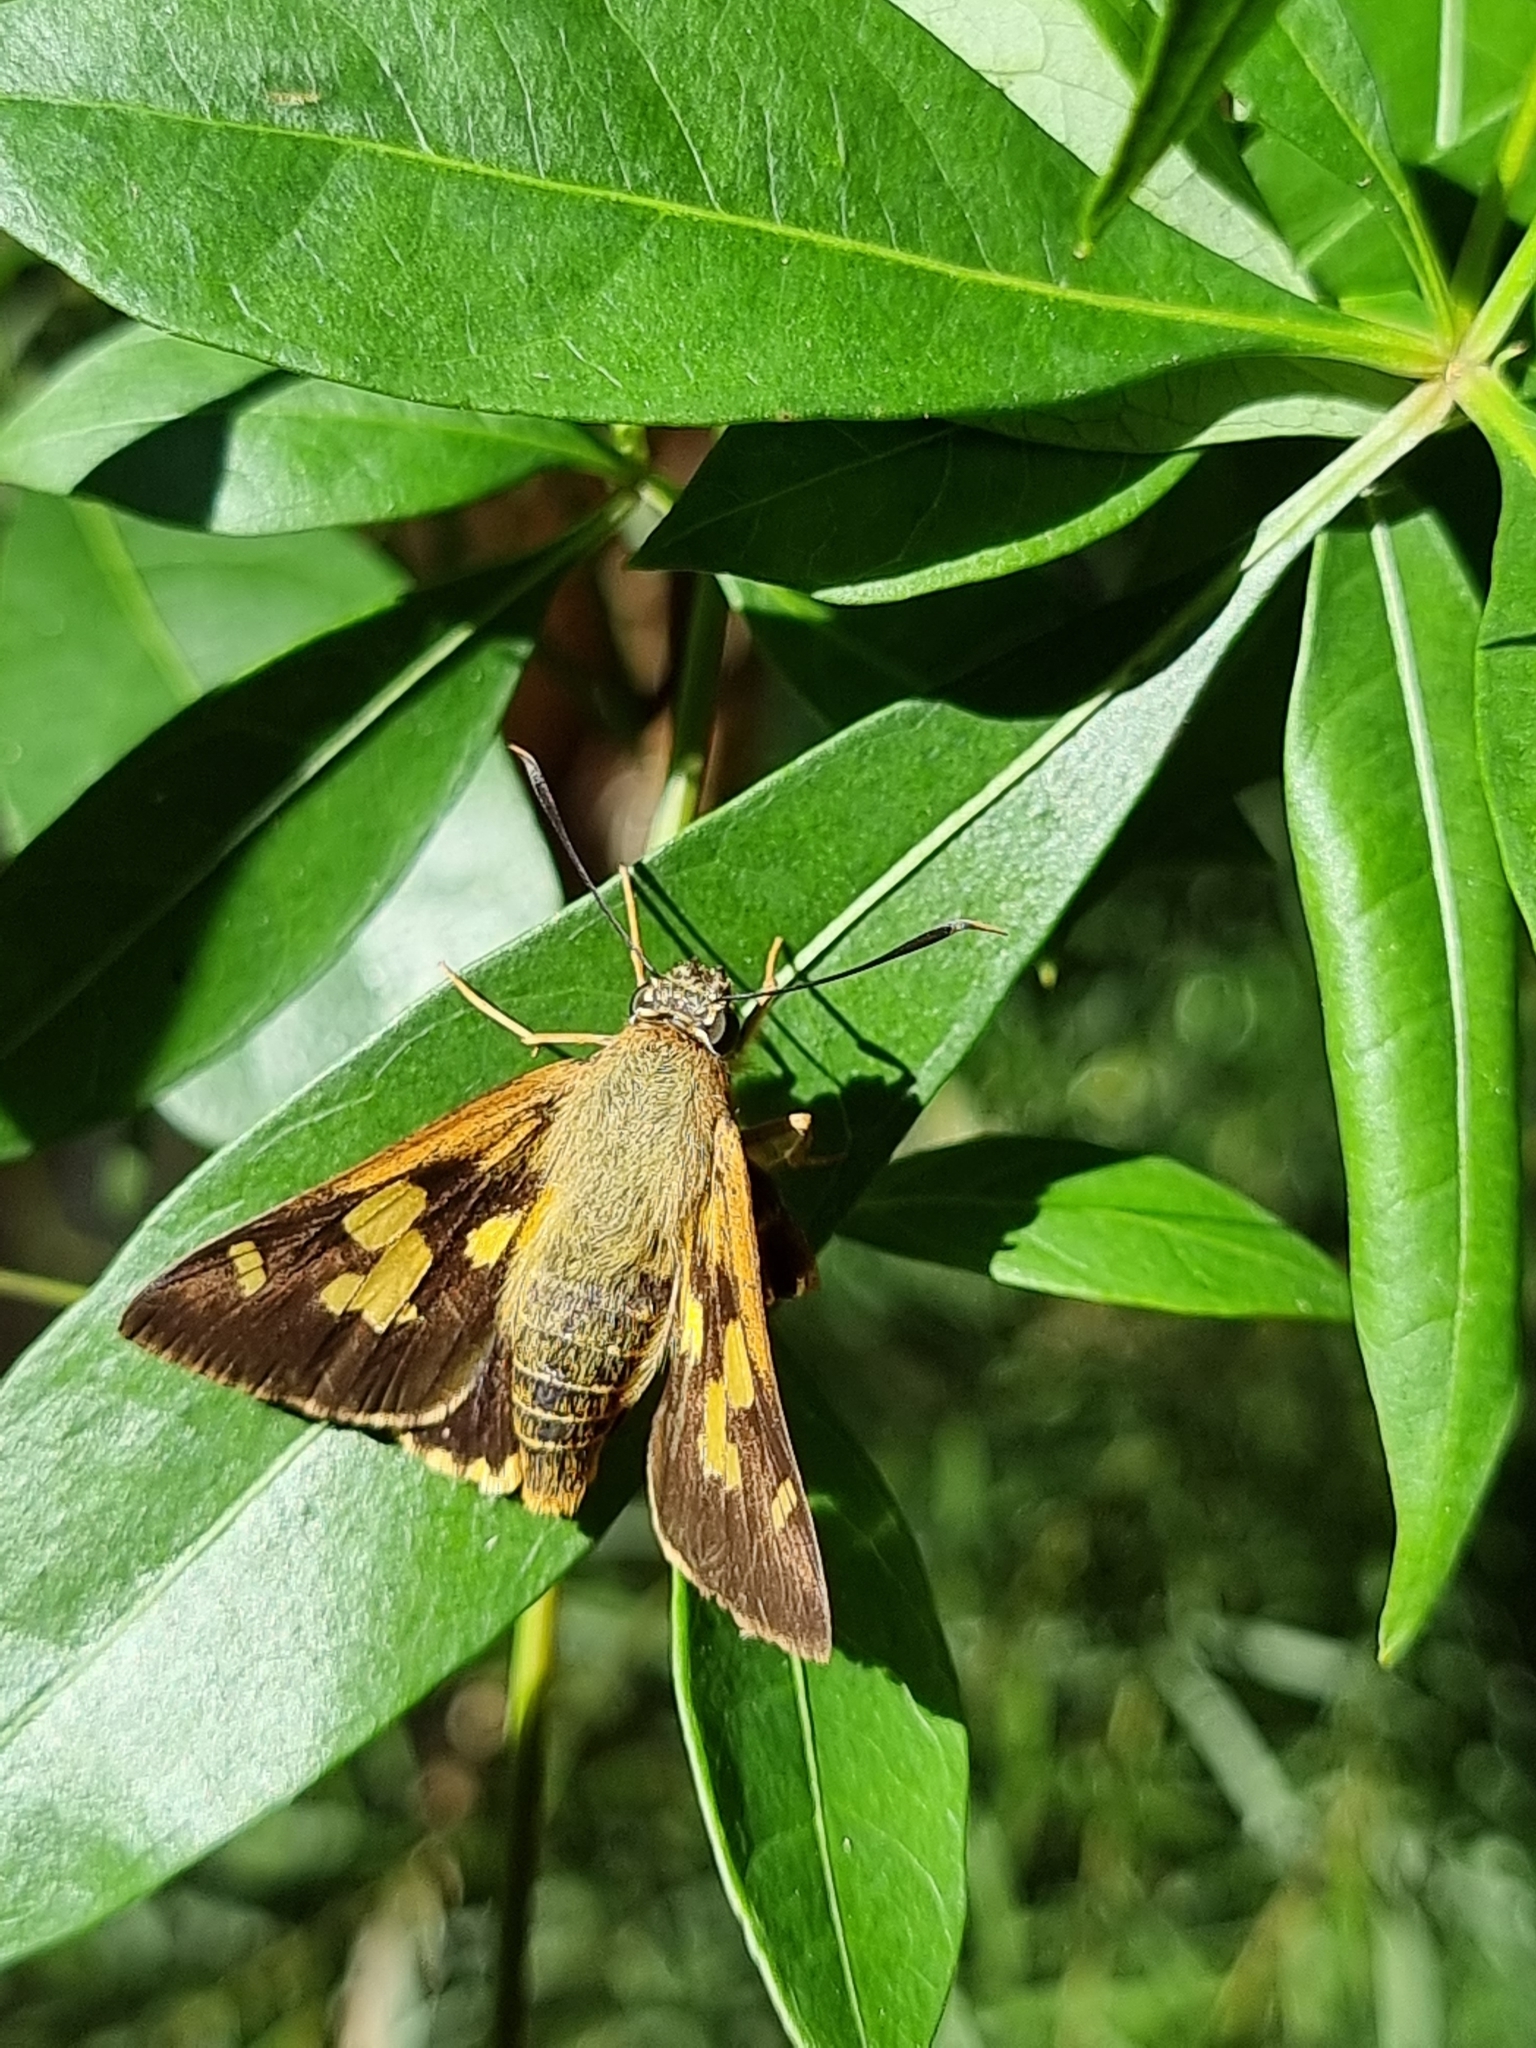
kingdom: Animalia
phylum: Arthropoda
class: Insecta
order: Lepidoptera
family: Hesperiidae
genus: Trapezites
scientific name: Trapezites symmomus
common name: Splendid ochre
